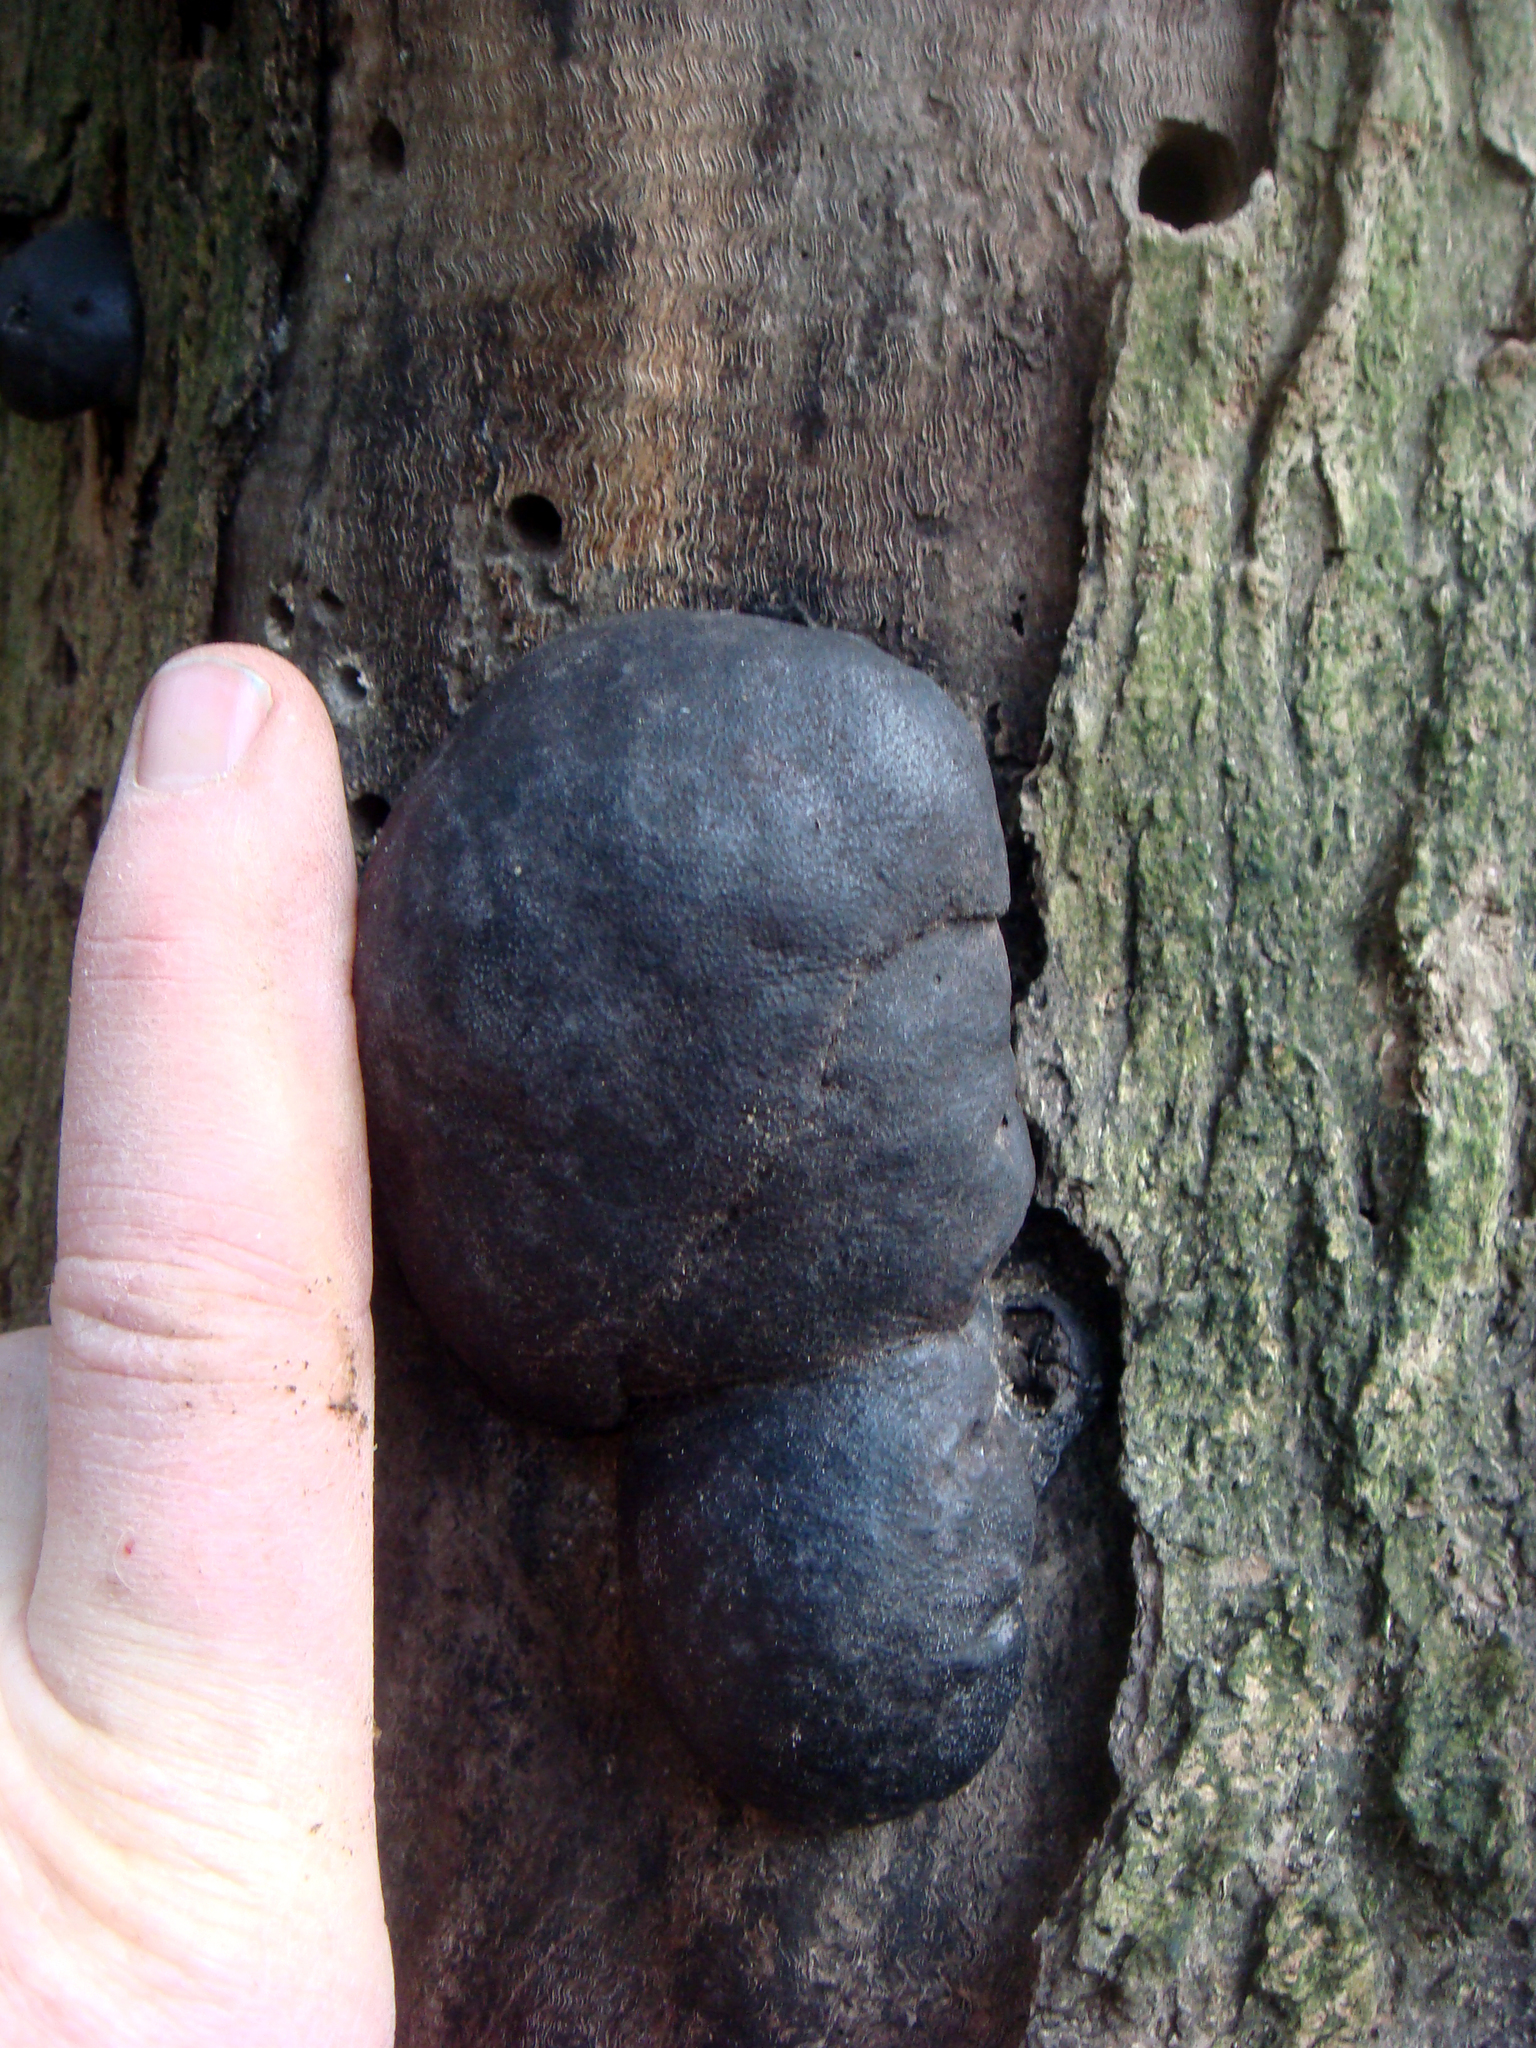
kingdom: Fungi
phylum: Ascomycota
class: Sordariomycetes
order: Xylariales
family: Hypoxylaceae
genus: Daldinia
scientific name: Daldinia dennisii
